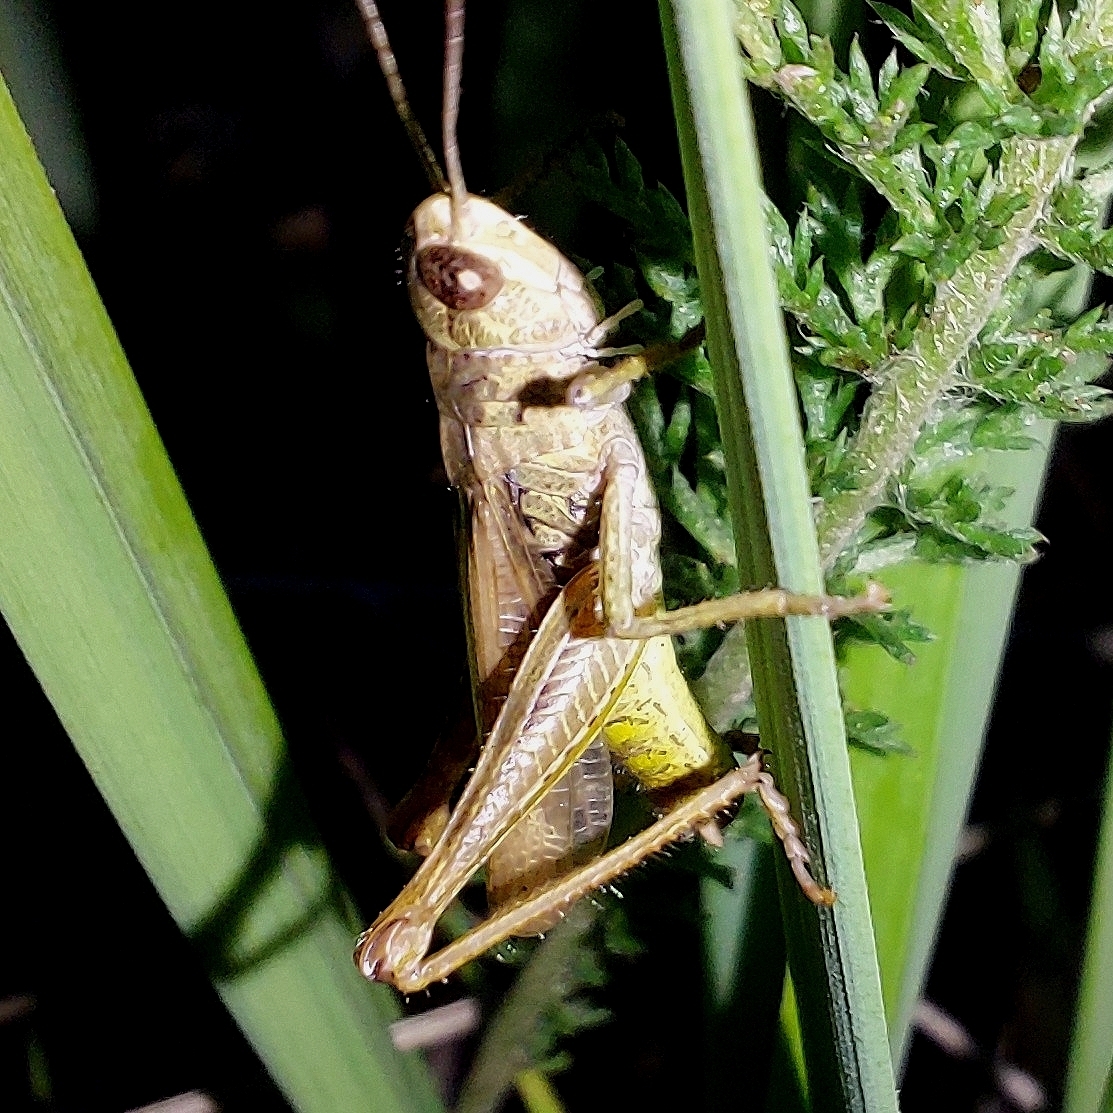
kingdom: Animalia
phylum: Arthropoda
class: Insecta
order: Orthoptera
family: Acrididae
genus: Chorthippus
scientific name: Chorthippus apricarius
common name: Upland field grasshopper
